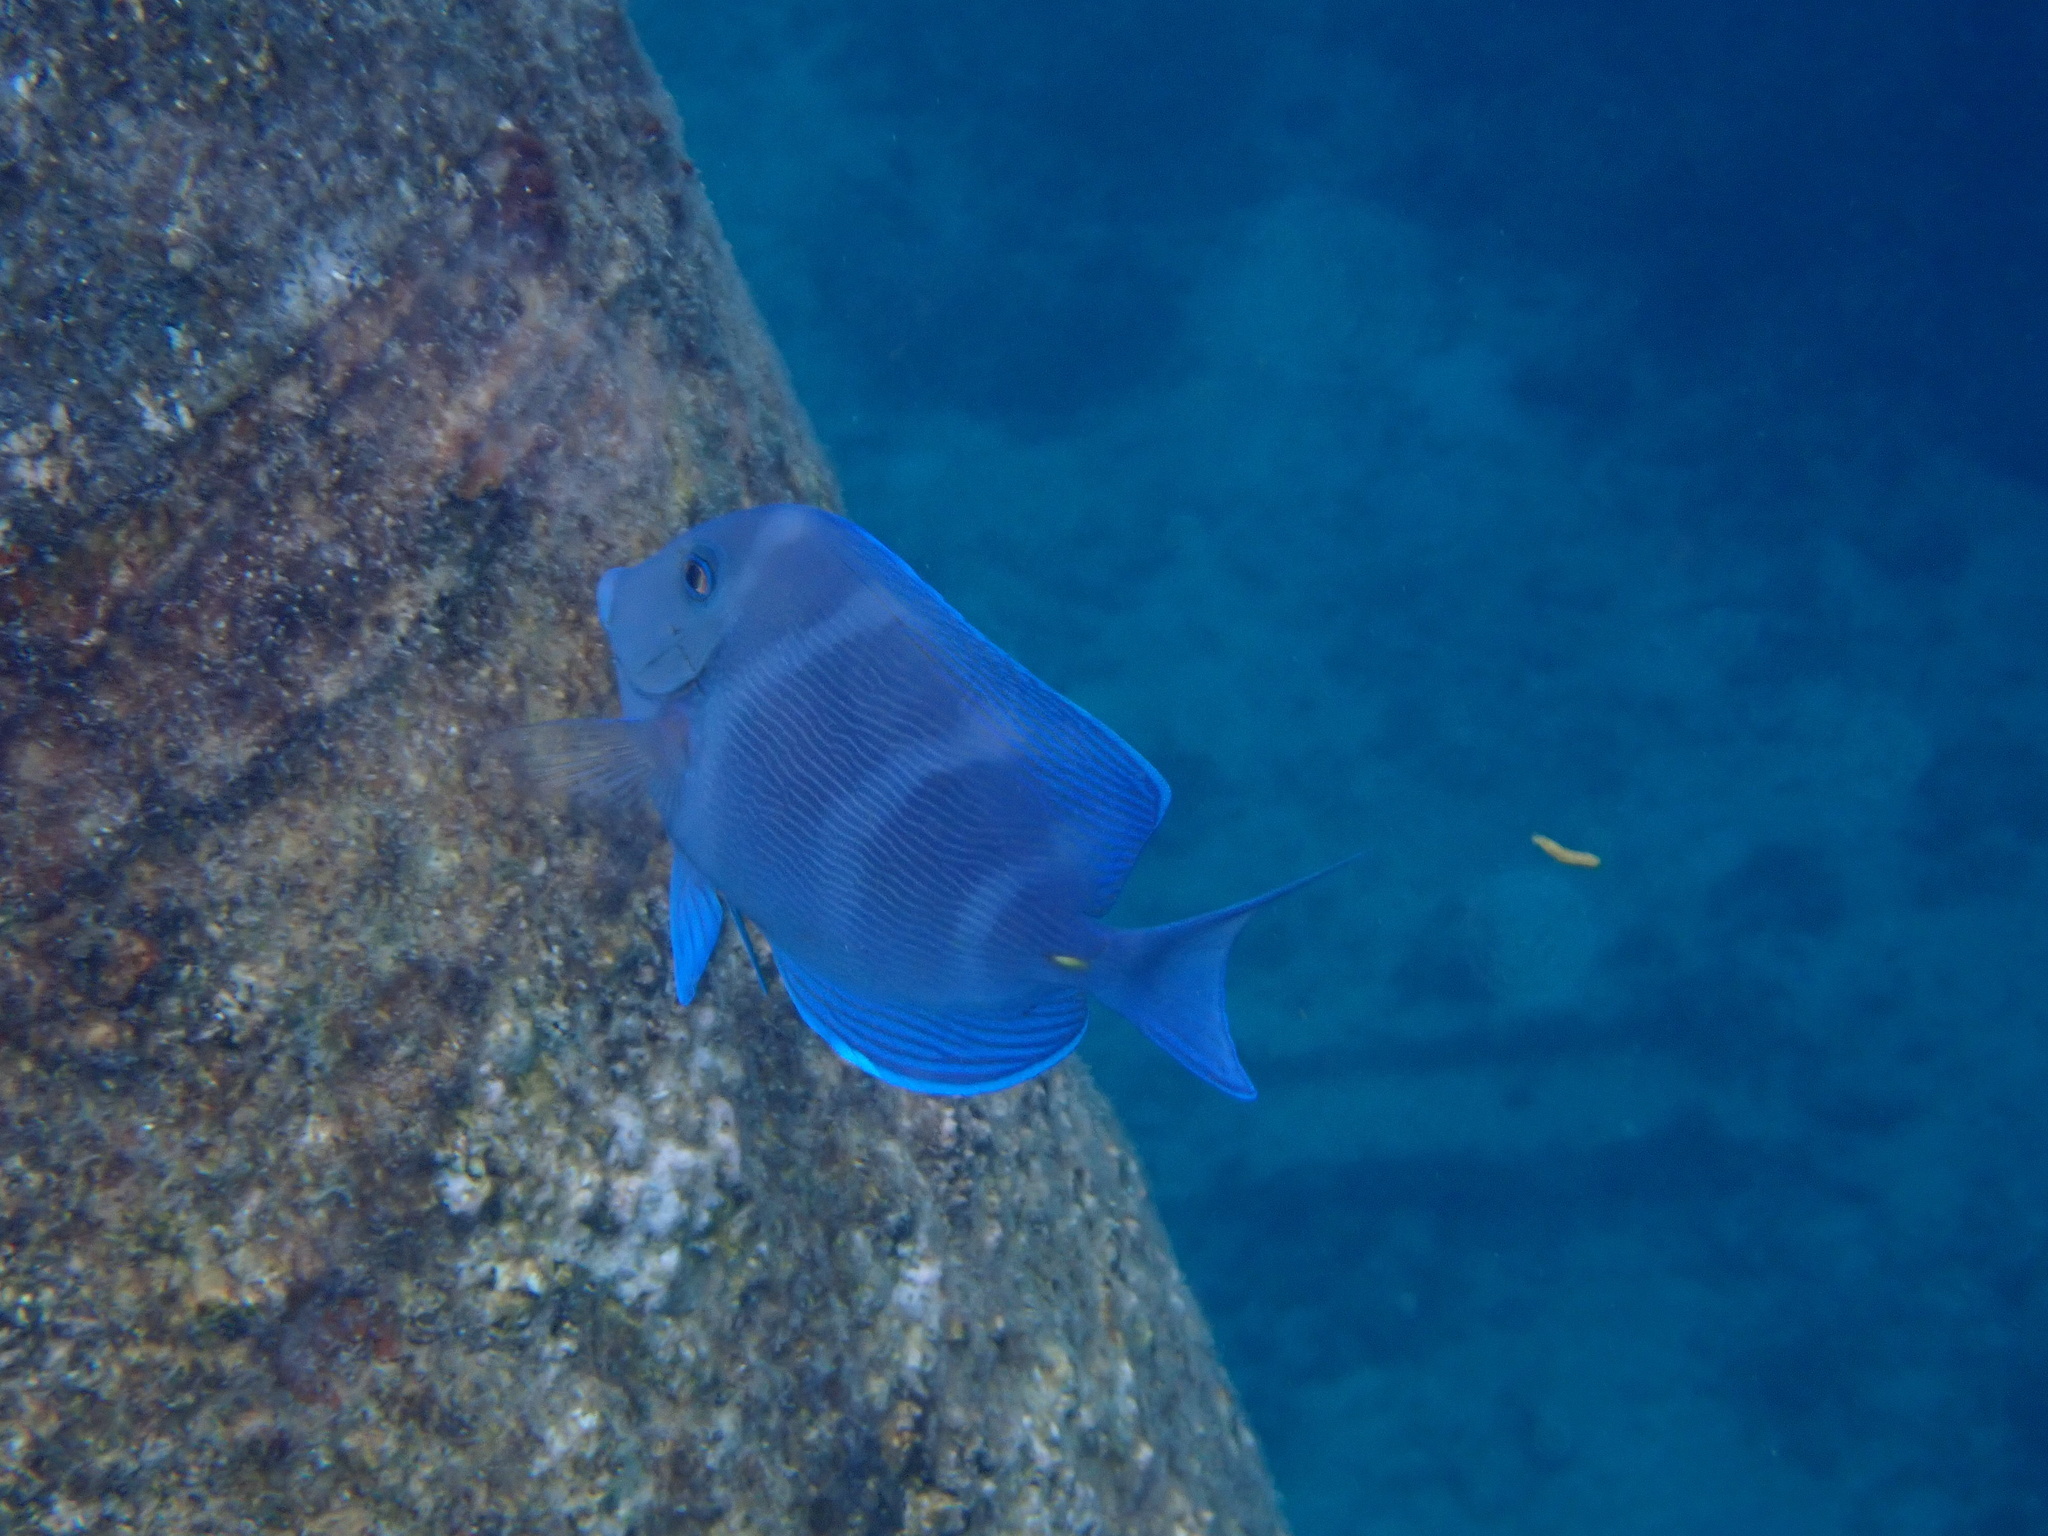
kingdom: Animalia
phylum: Chordata
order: Perciformes
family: Acanthuridae
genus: Acanthurus
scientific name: Acanthurus coeruleus
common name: Blue tang
